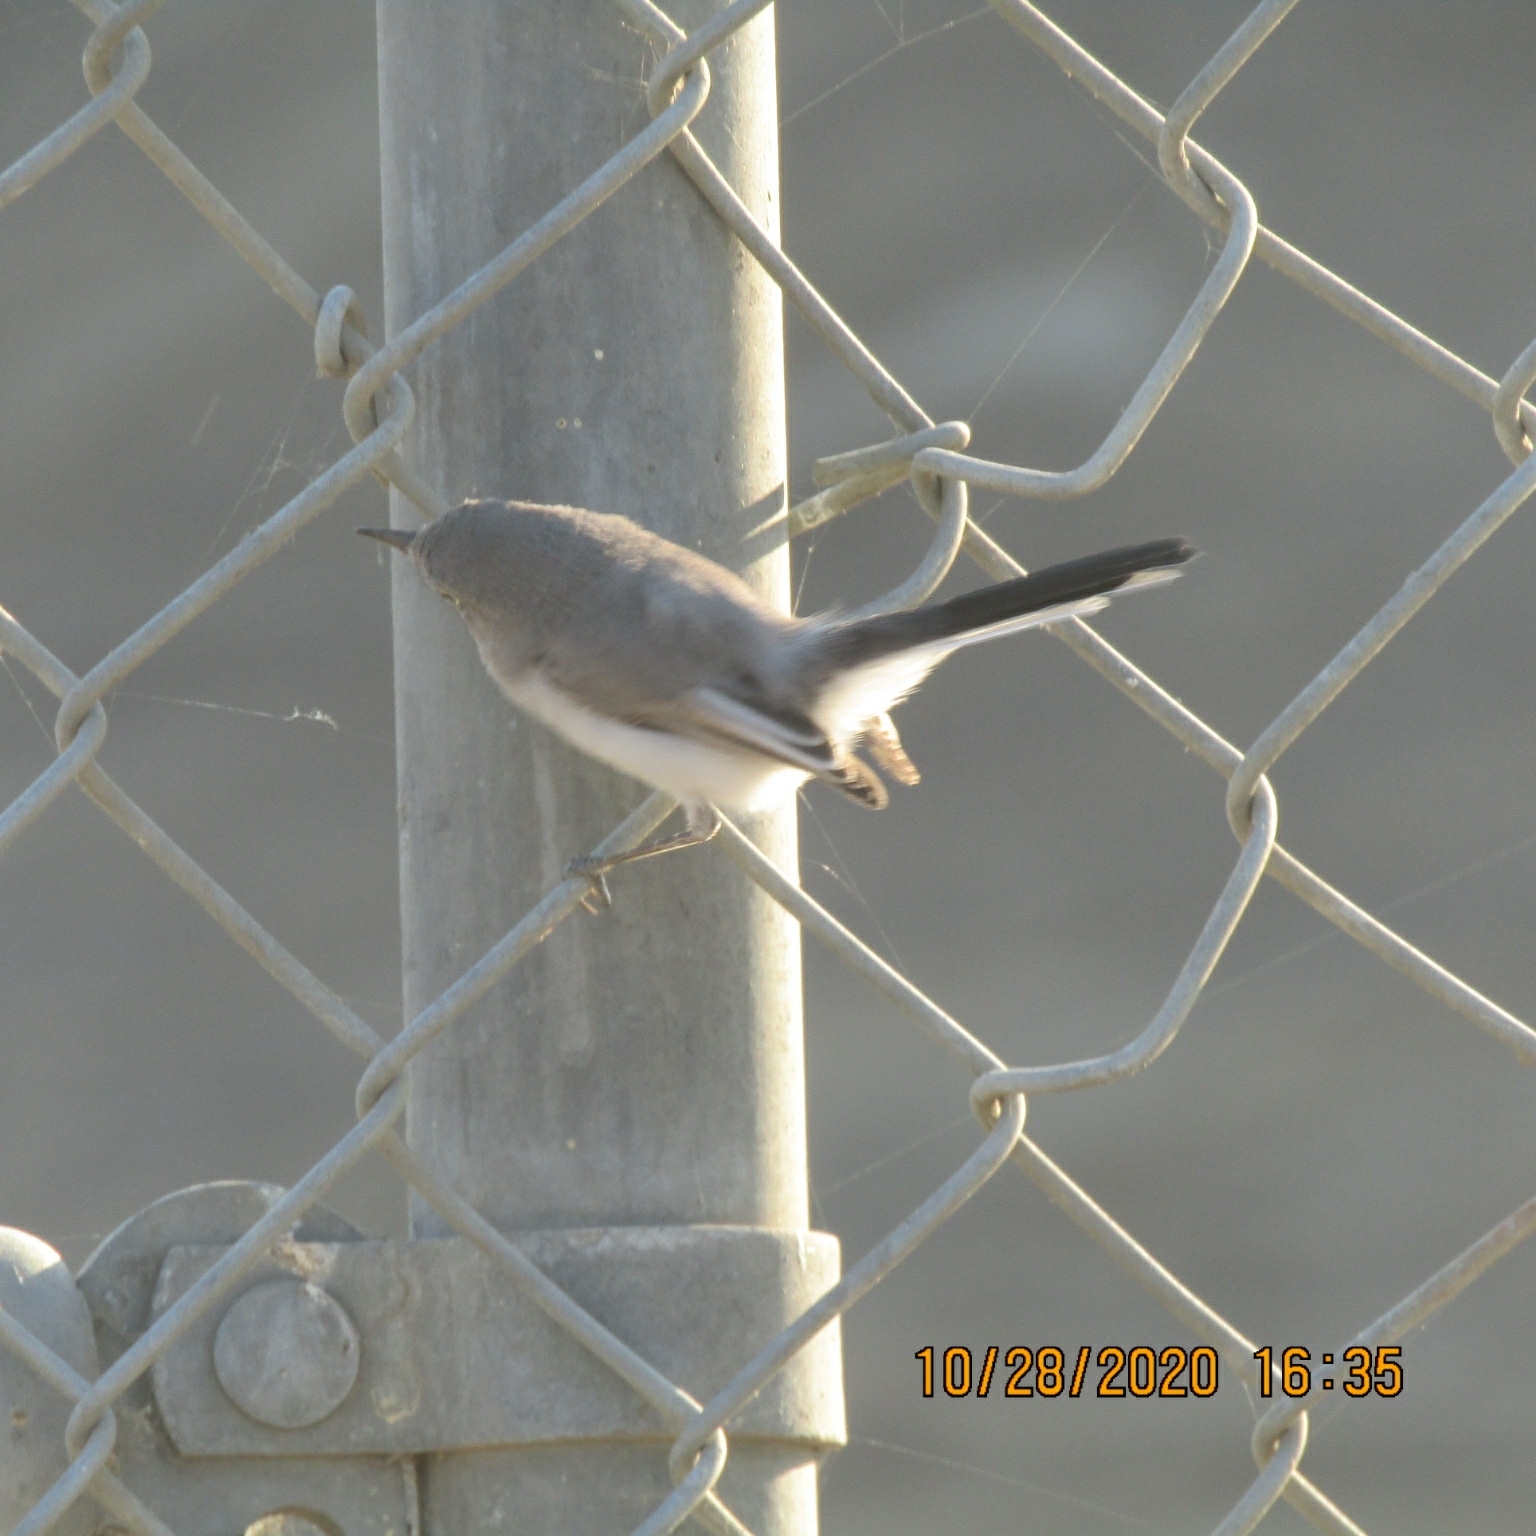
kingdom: Animalia
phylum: Chordata
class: Aves
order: Passeriformes
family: Polioptilidae
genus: Polioptila
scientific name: Polioptila caerulea
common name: Blue-gray gnatcatcher
